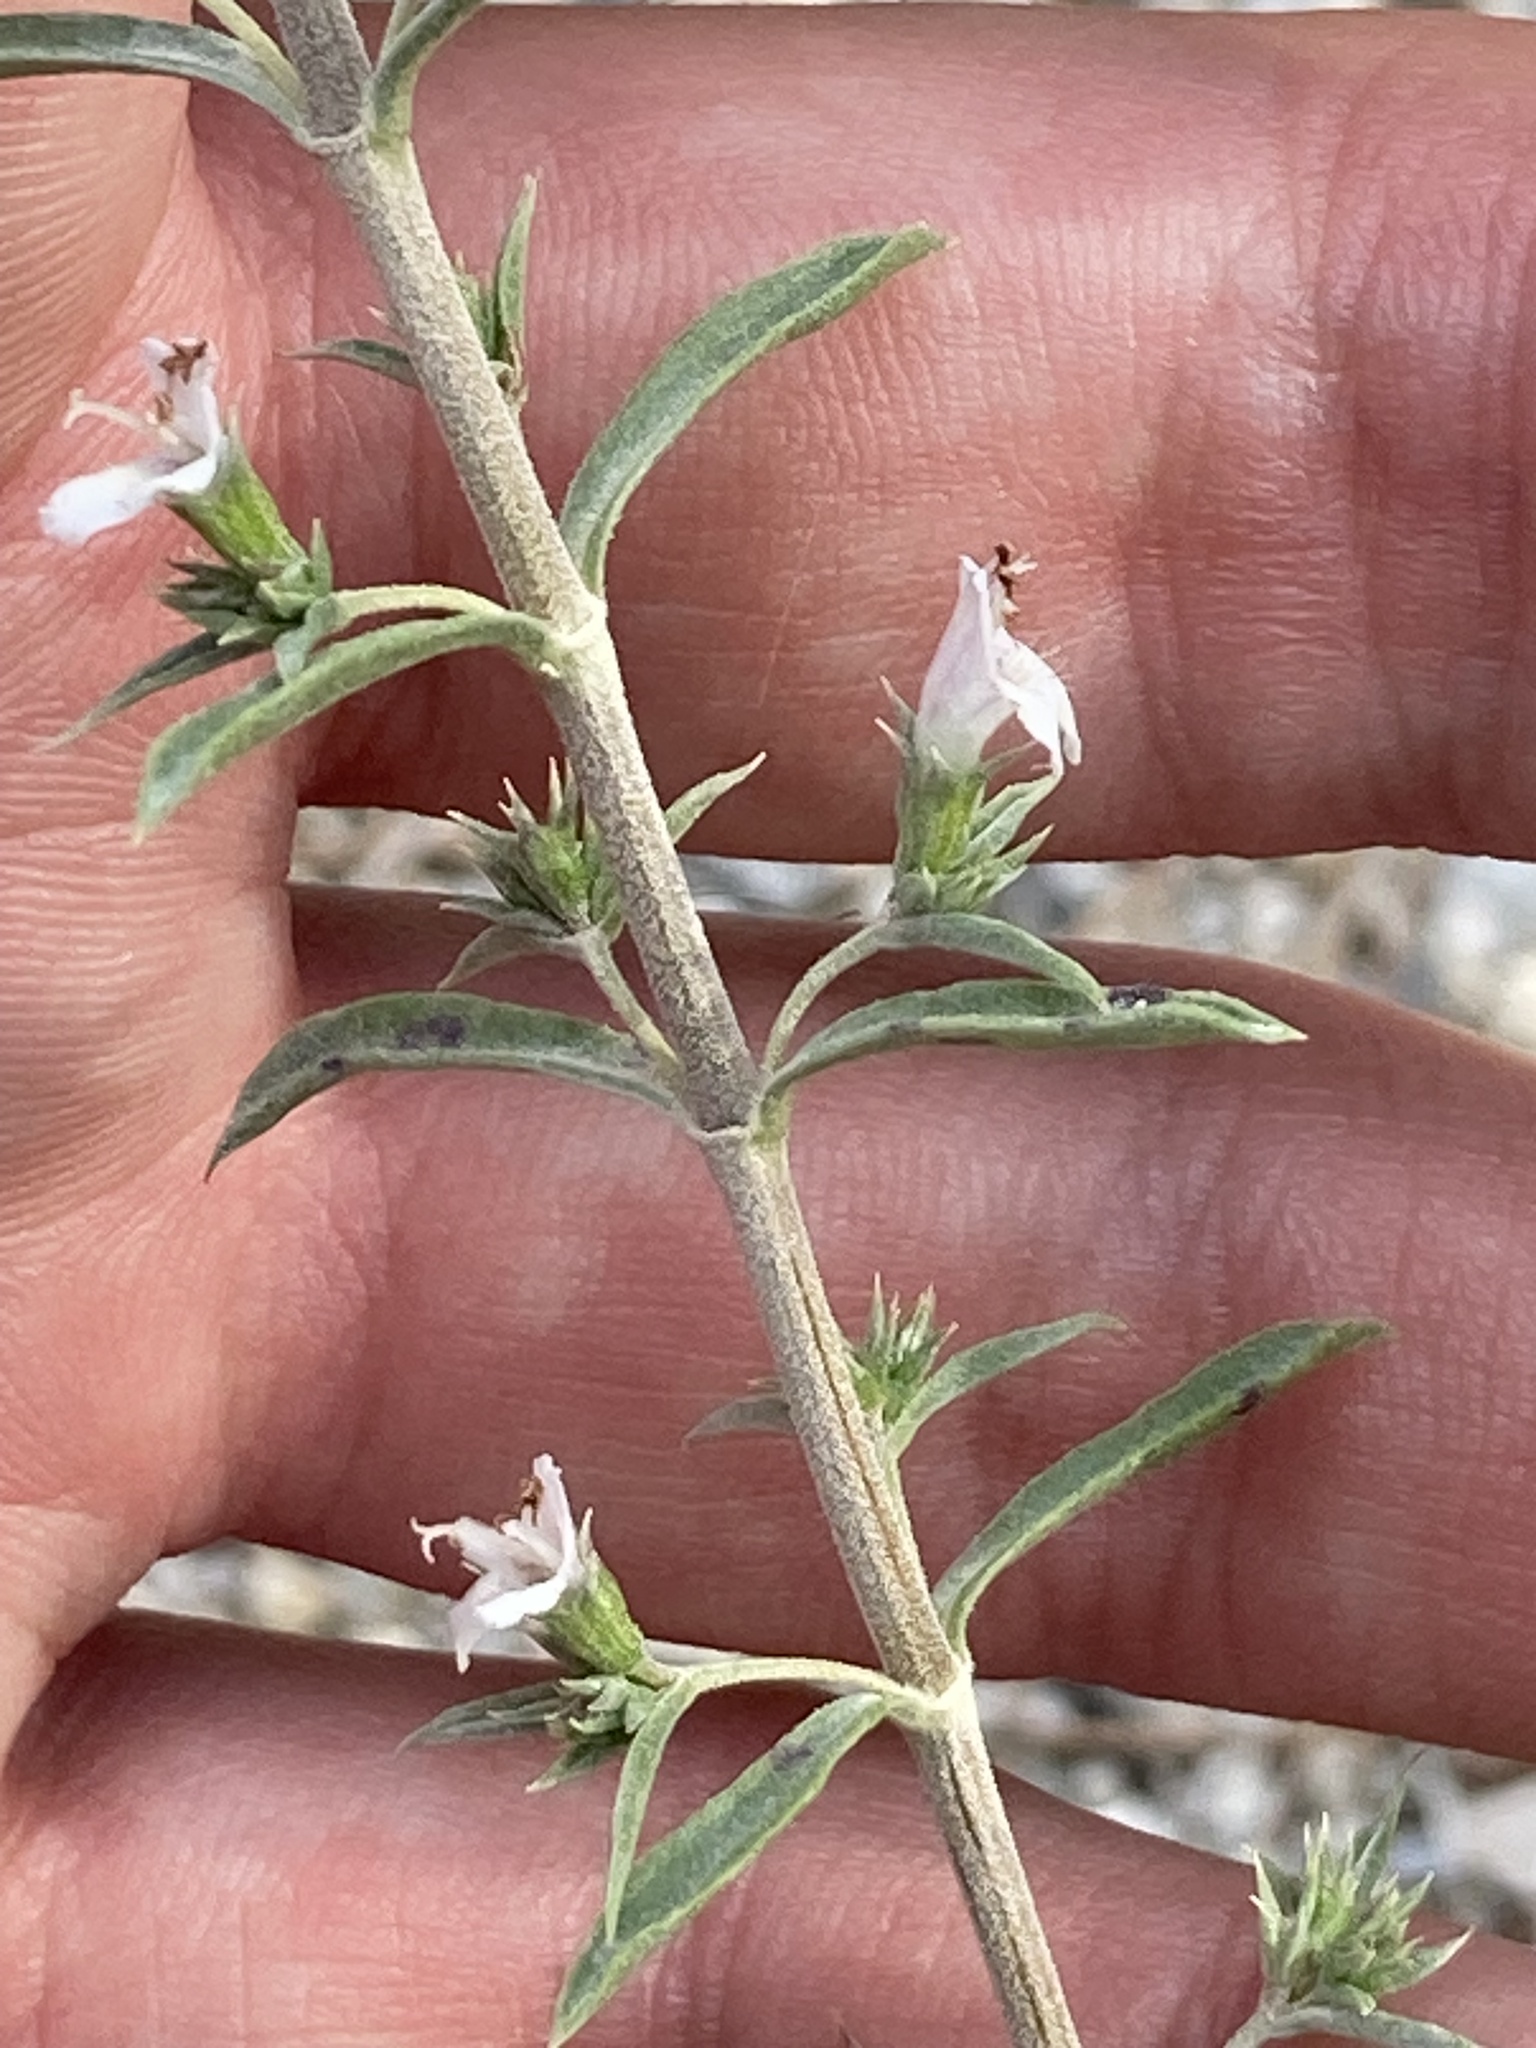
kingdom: Plantae
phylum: Tracheophyta
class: Magnoliopsida
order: Lamiales
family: Lamiaceae
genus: Satureja
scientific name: Satureja montana
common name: Winter savory
